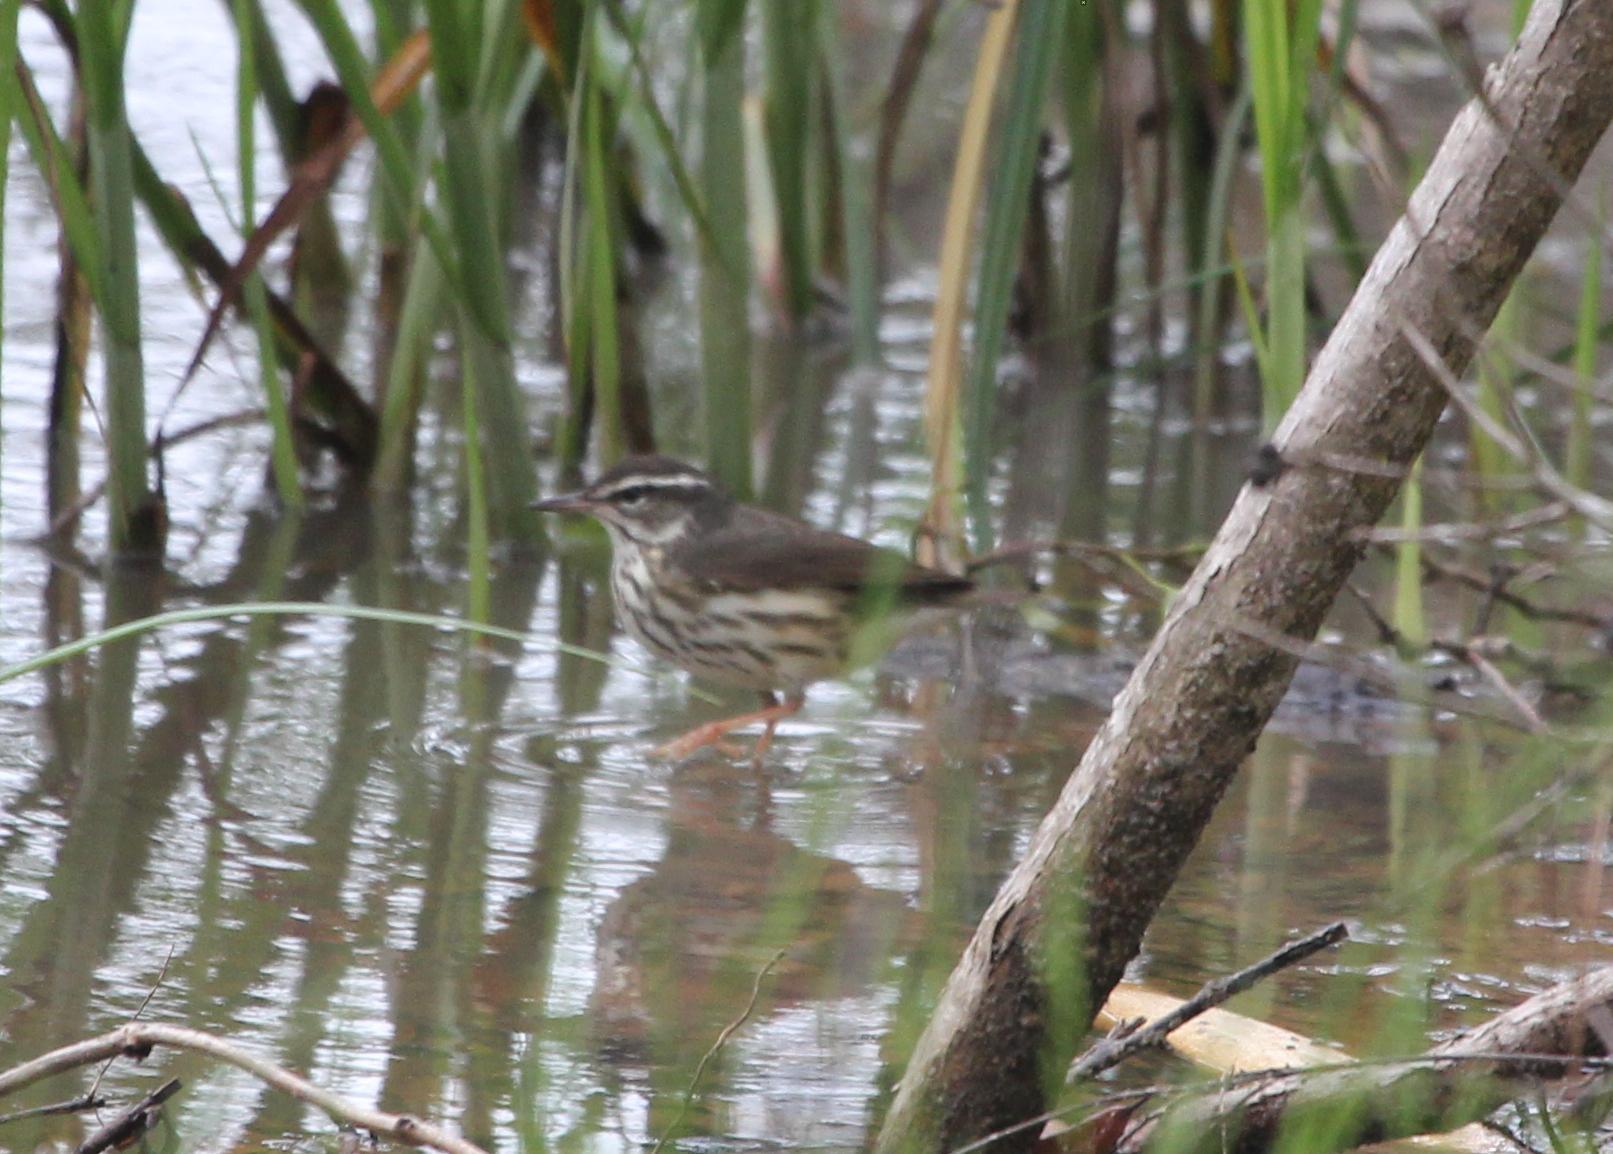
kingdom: Animalia
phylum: Chordata
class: Aves
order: Passeriformes
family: Parulidae
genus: Parkesia
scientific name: Parkesia motacilla
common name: Louisiana waterthrush
